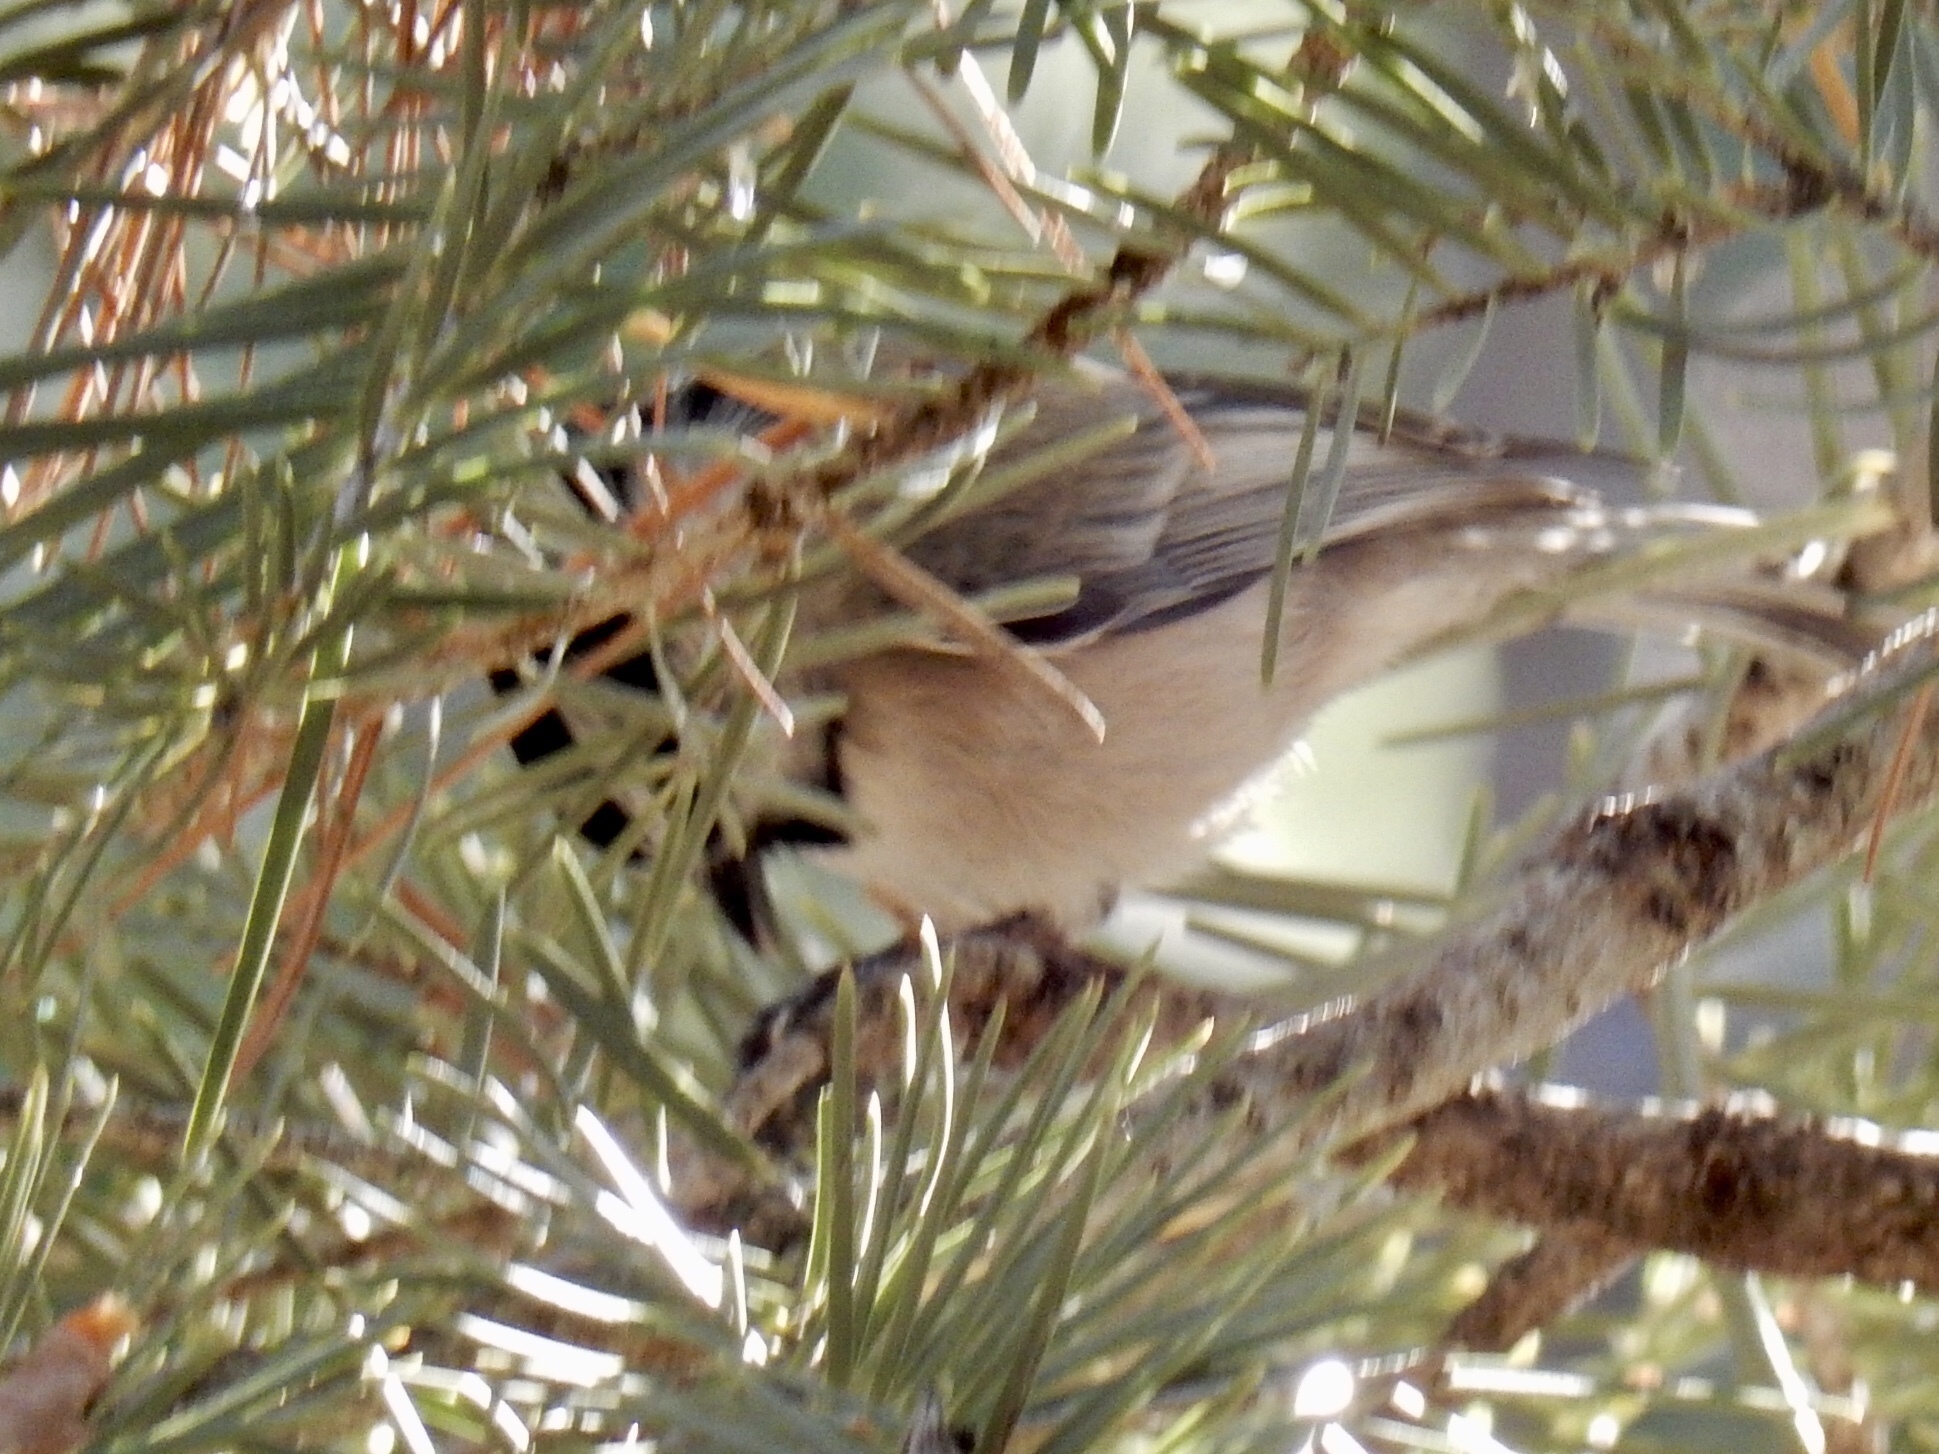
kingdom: Animalia
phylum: Chordata
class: Aves
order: Passeriformes
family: Paridae
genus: Poecile
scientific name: Poecile gambeli
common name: Mountain chickadee
